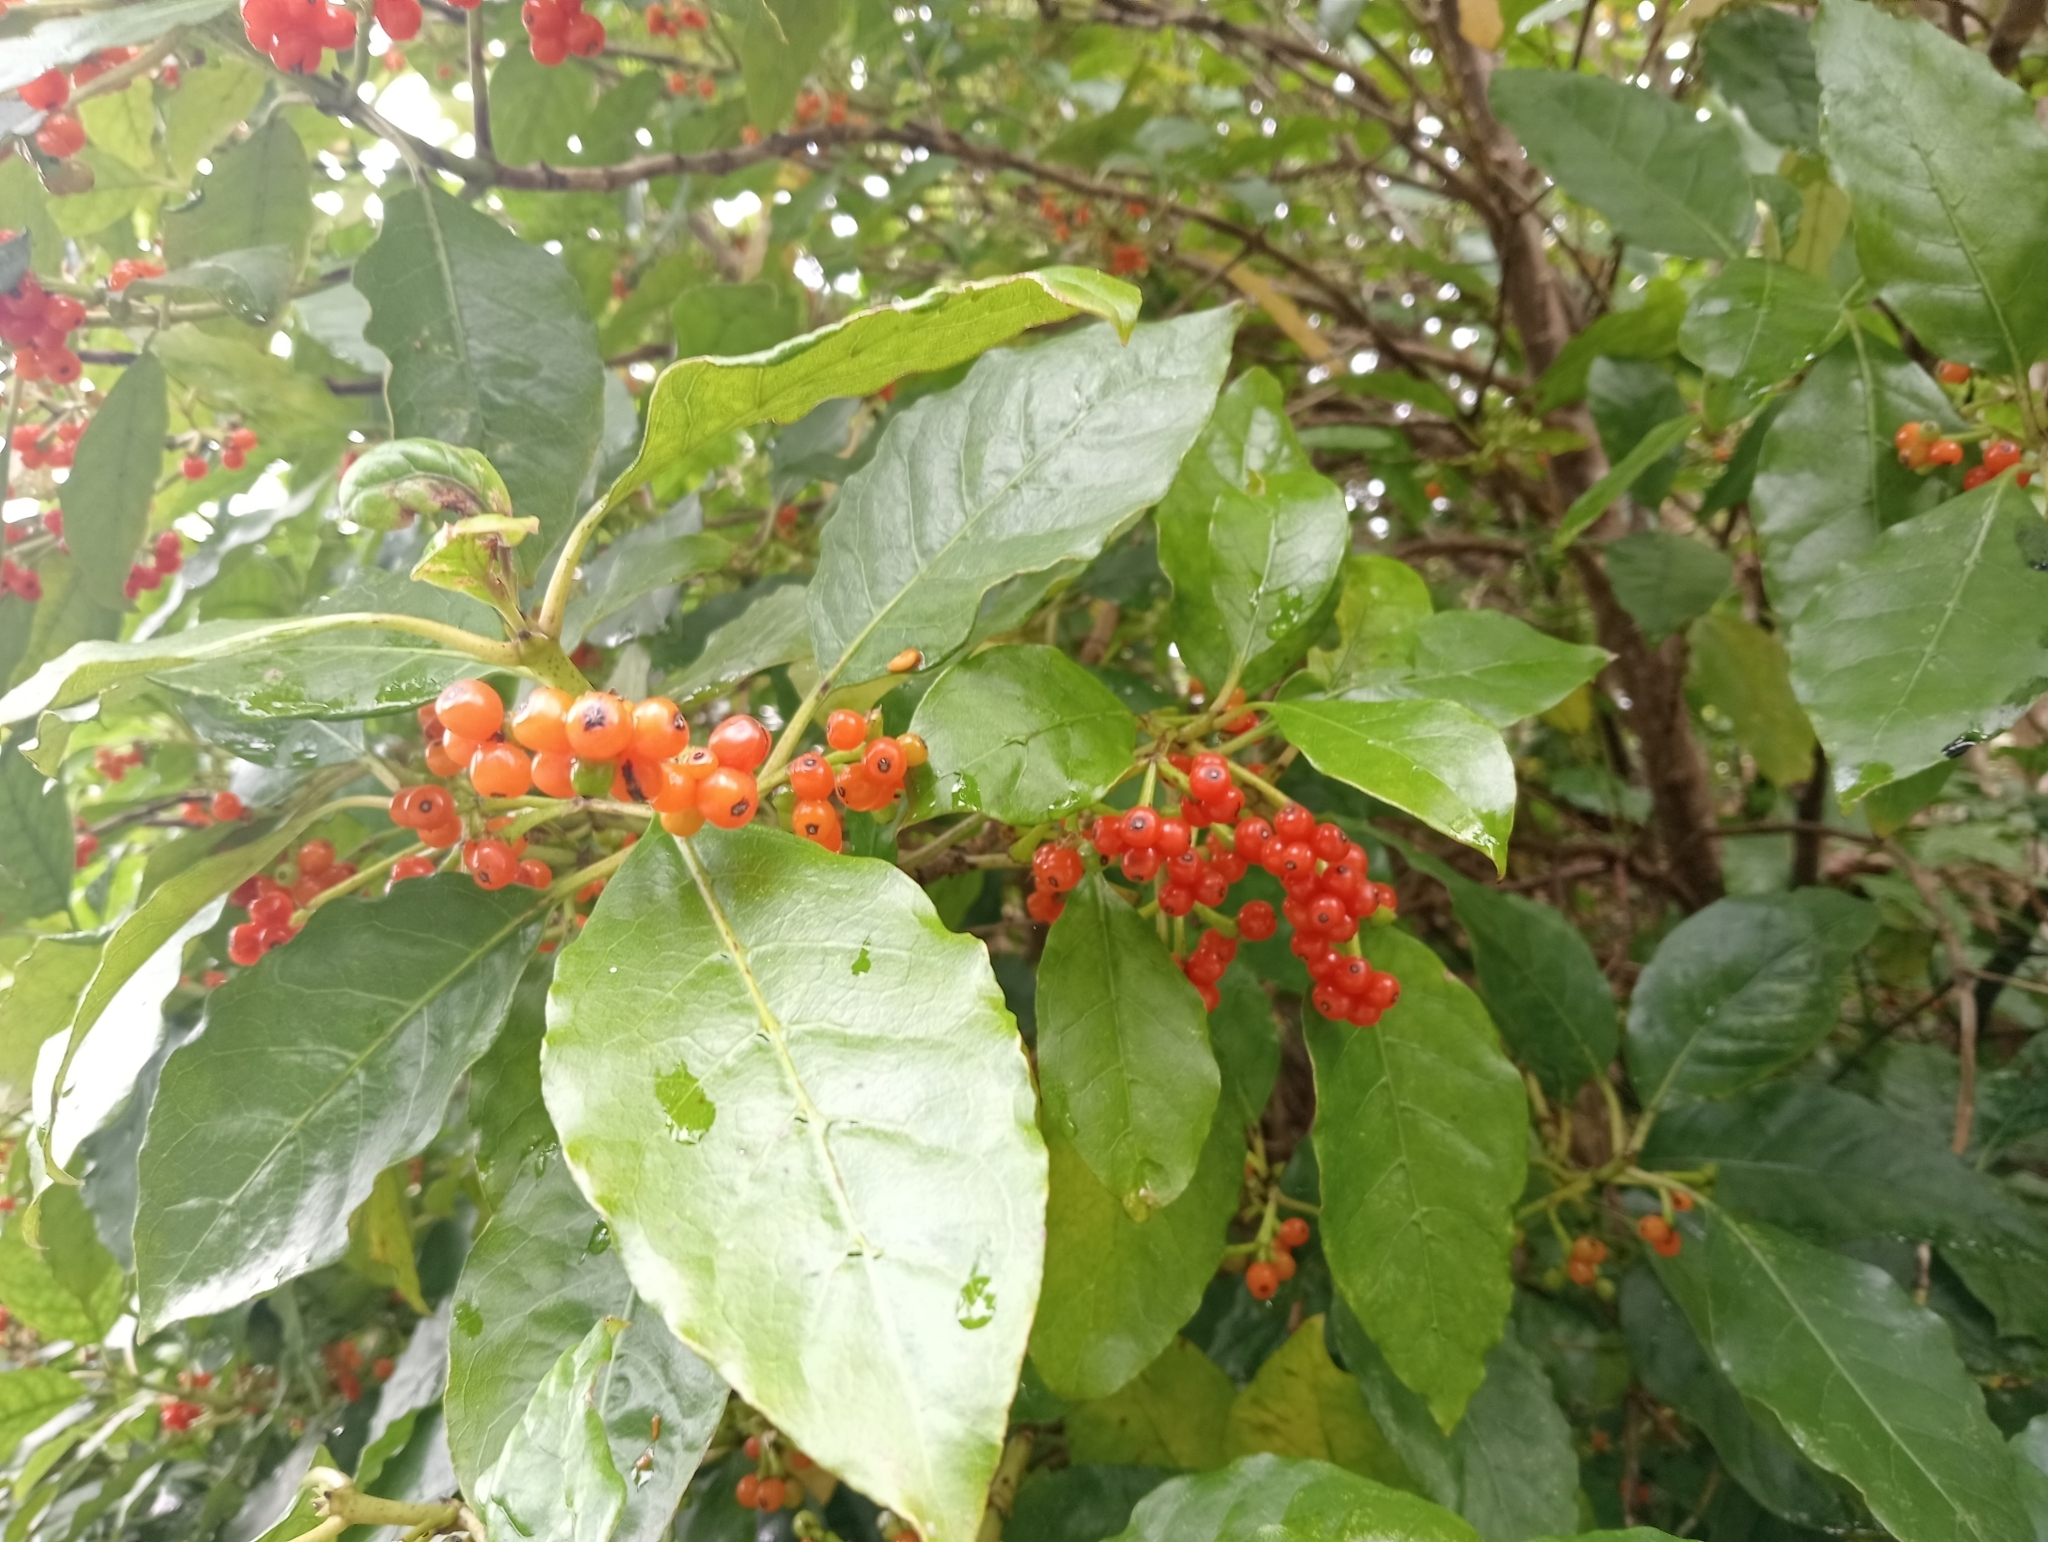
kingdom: Plantae
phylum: Tracheophyta
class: Magnoliopsida
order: Gentianales
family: Rubiaceae
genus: Coprosma
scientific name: Coprosma autumnalis
